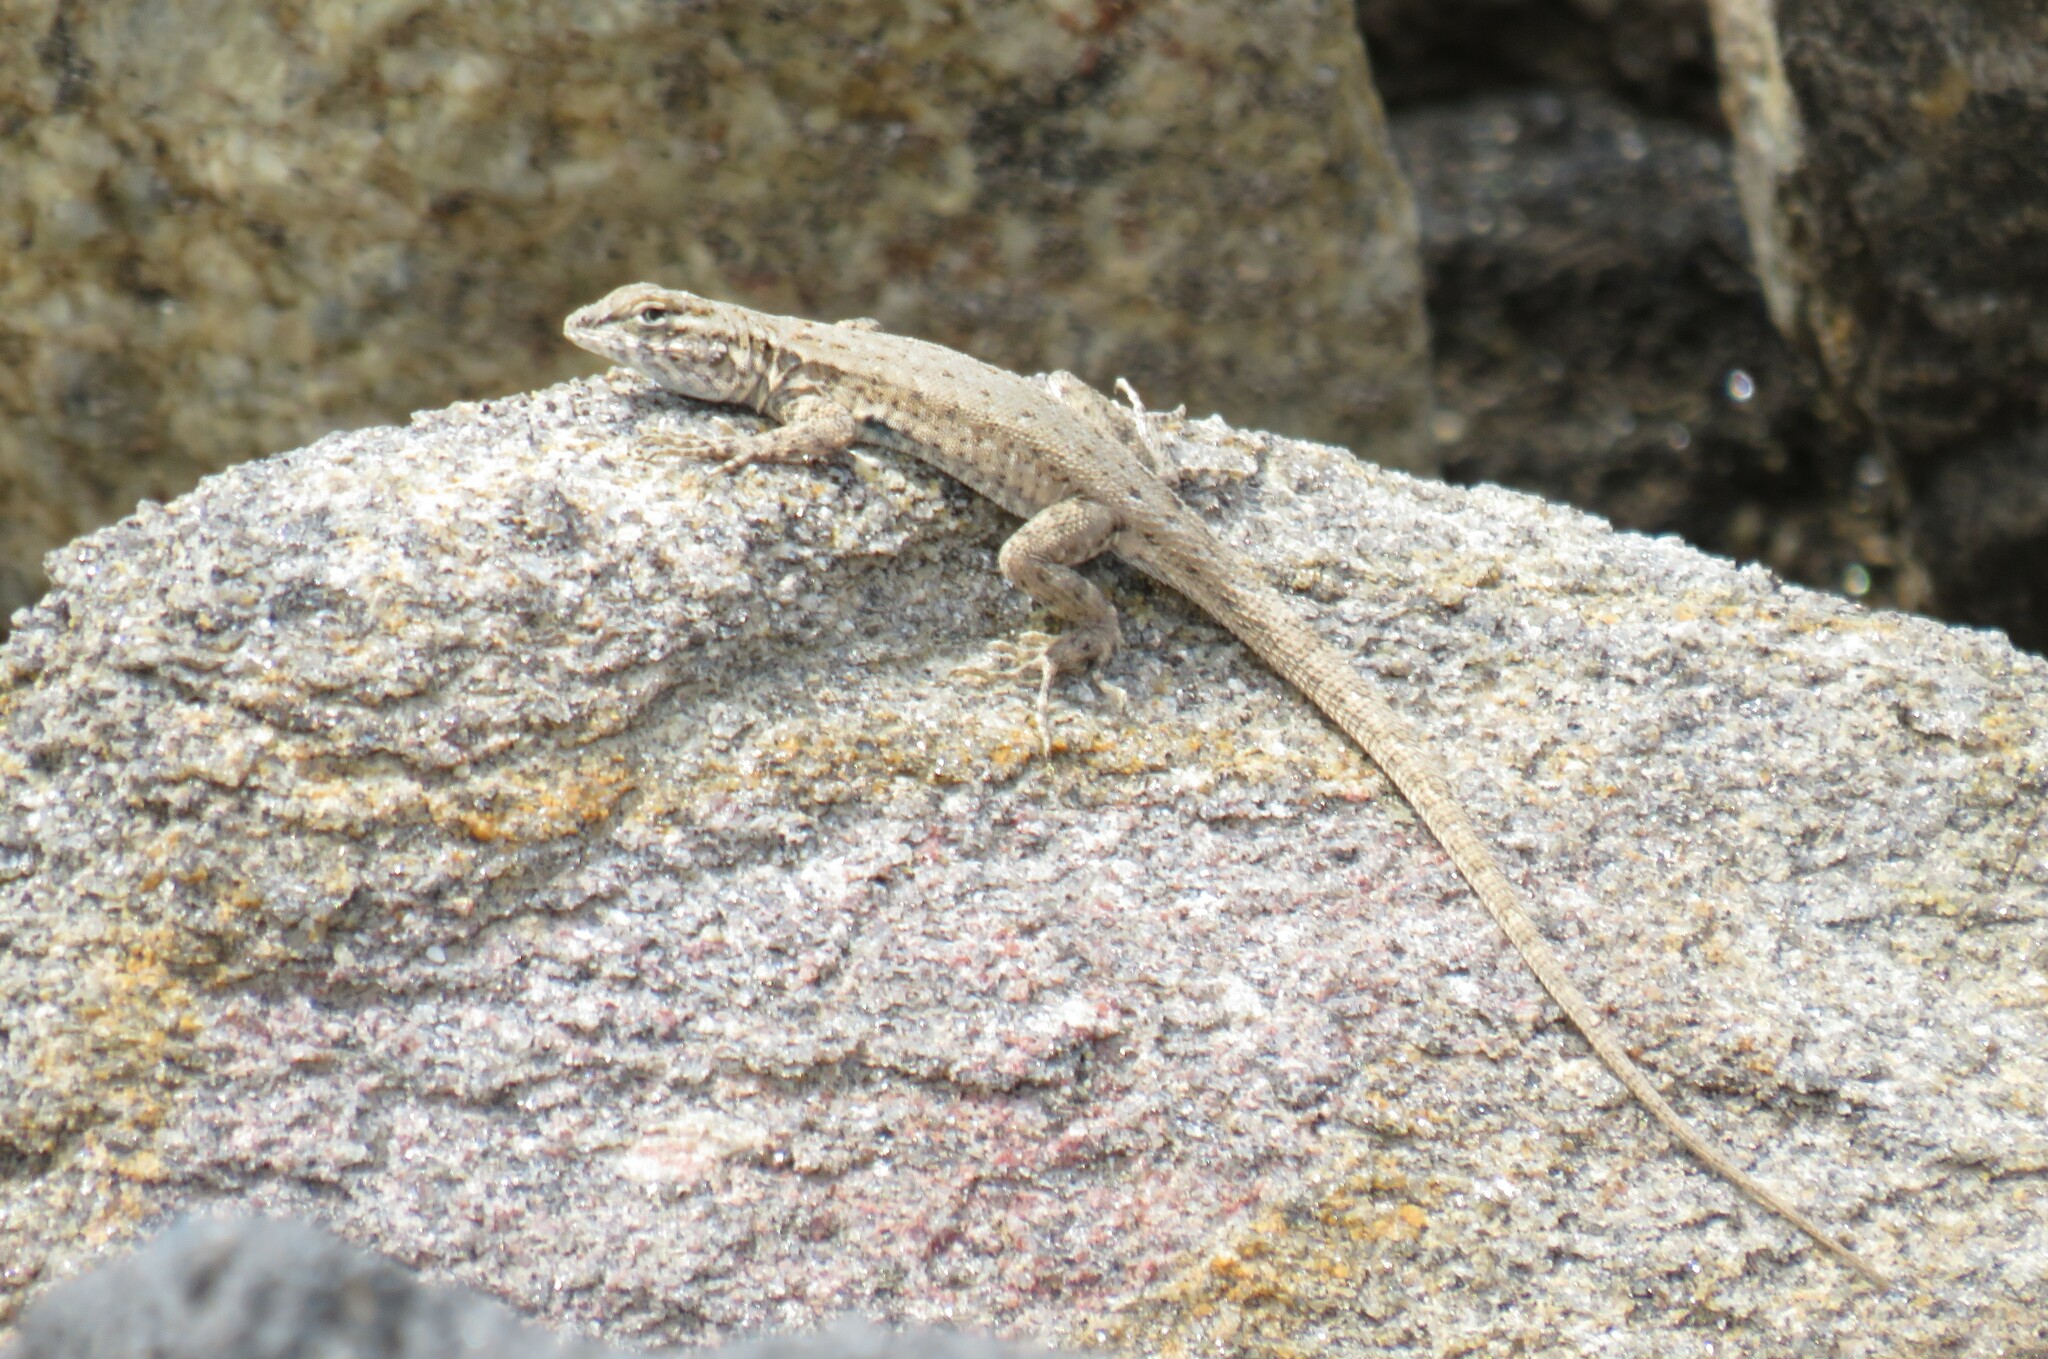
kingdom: Animalia
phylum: Chordata
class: Squamata
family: Phrynosomatidae
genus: Uta
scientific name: Uta stansburiana
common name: Side-blotched lizard
